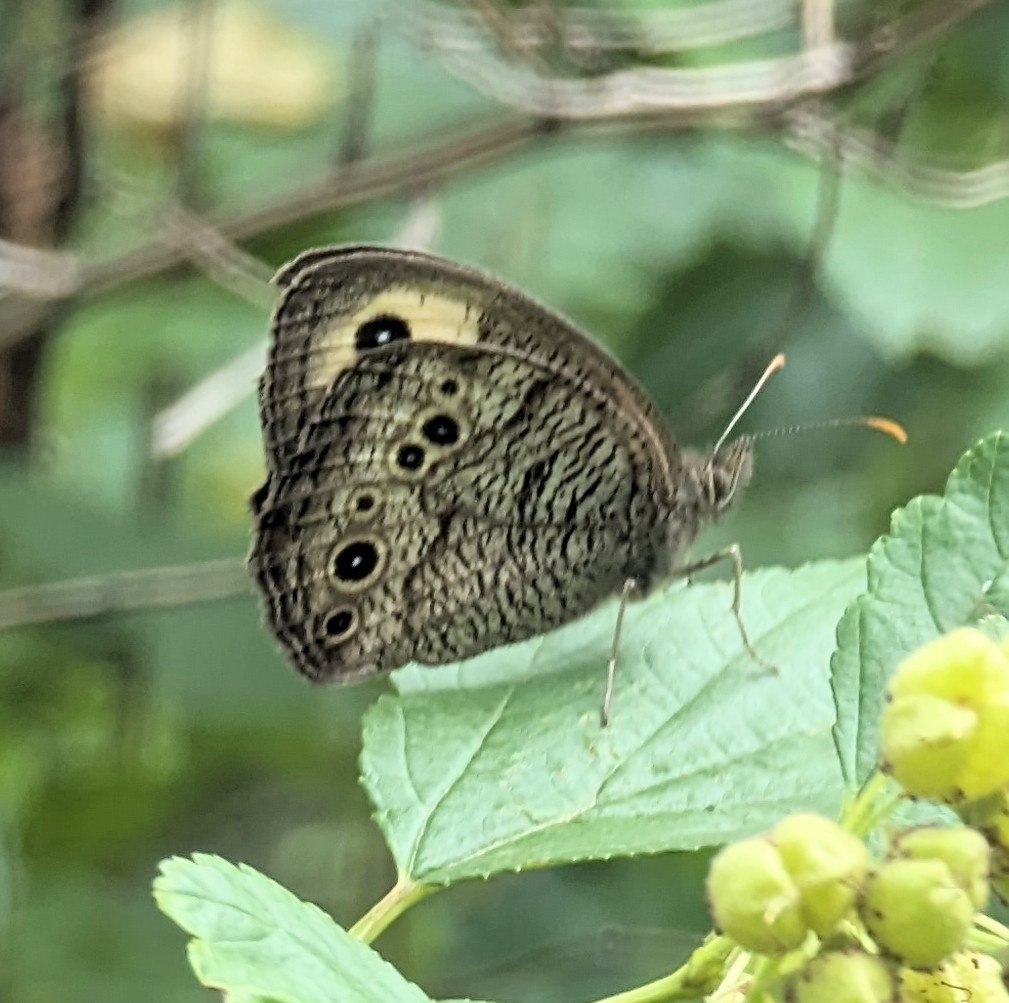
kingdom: Animalia
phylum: Arthropoda
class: Insecta
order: Lepidoptera
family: Nymphalidae
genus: Cercyonis
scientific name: Cercyonis pegala
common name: Common wood-nymph
